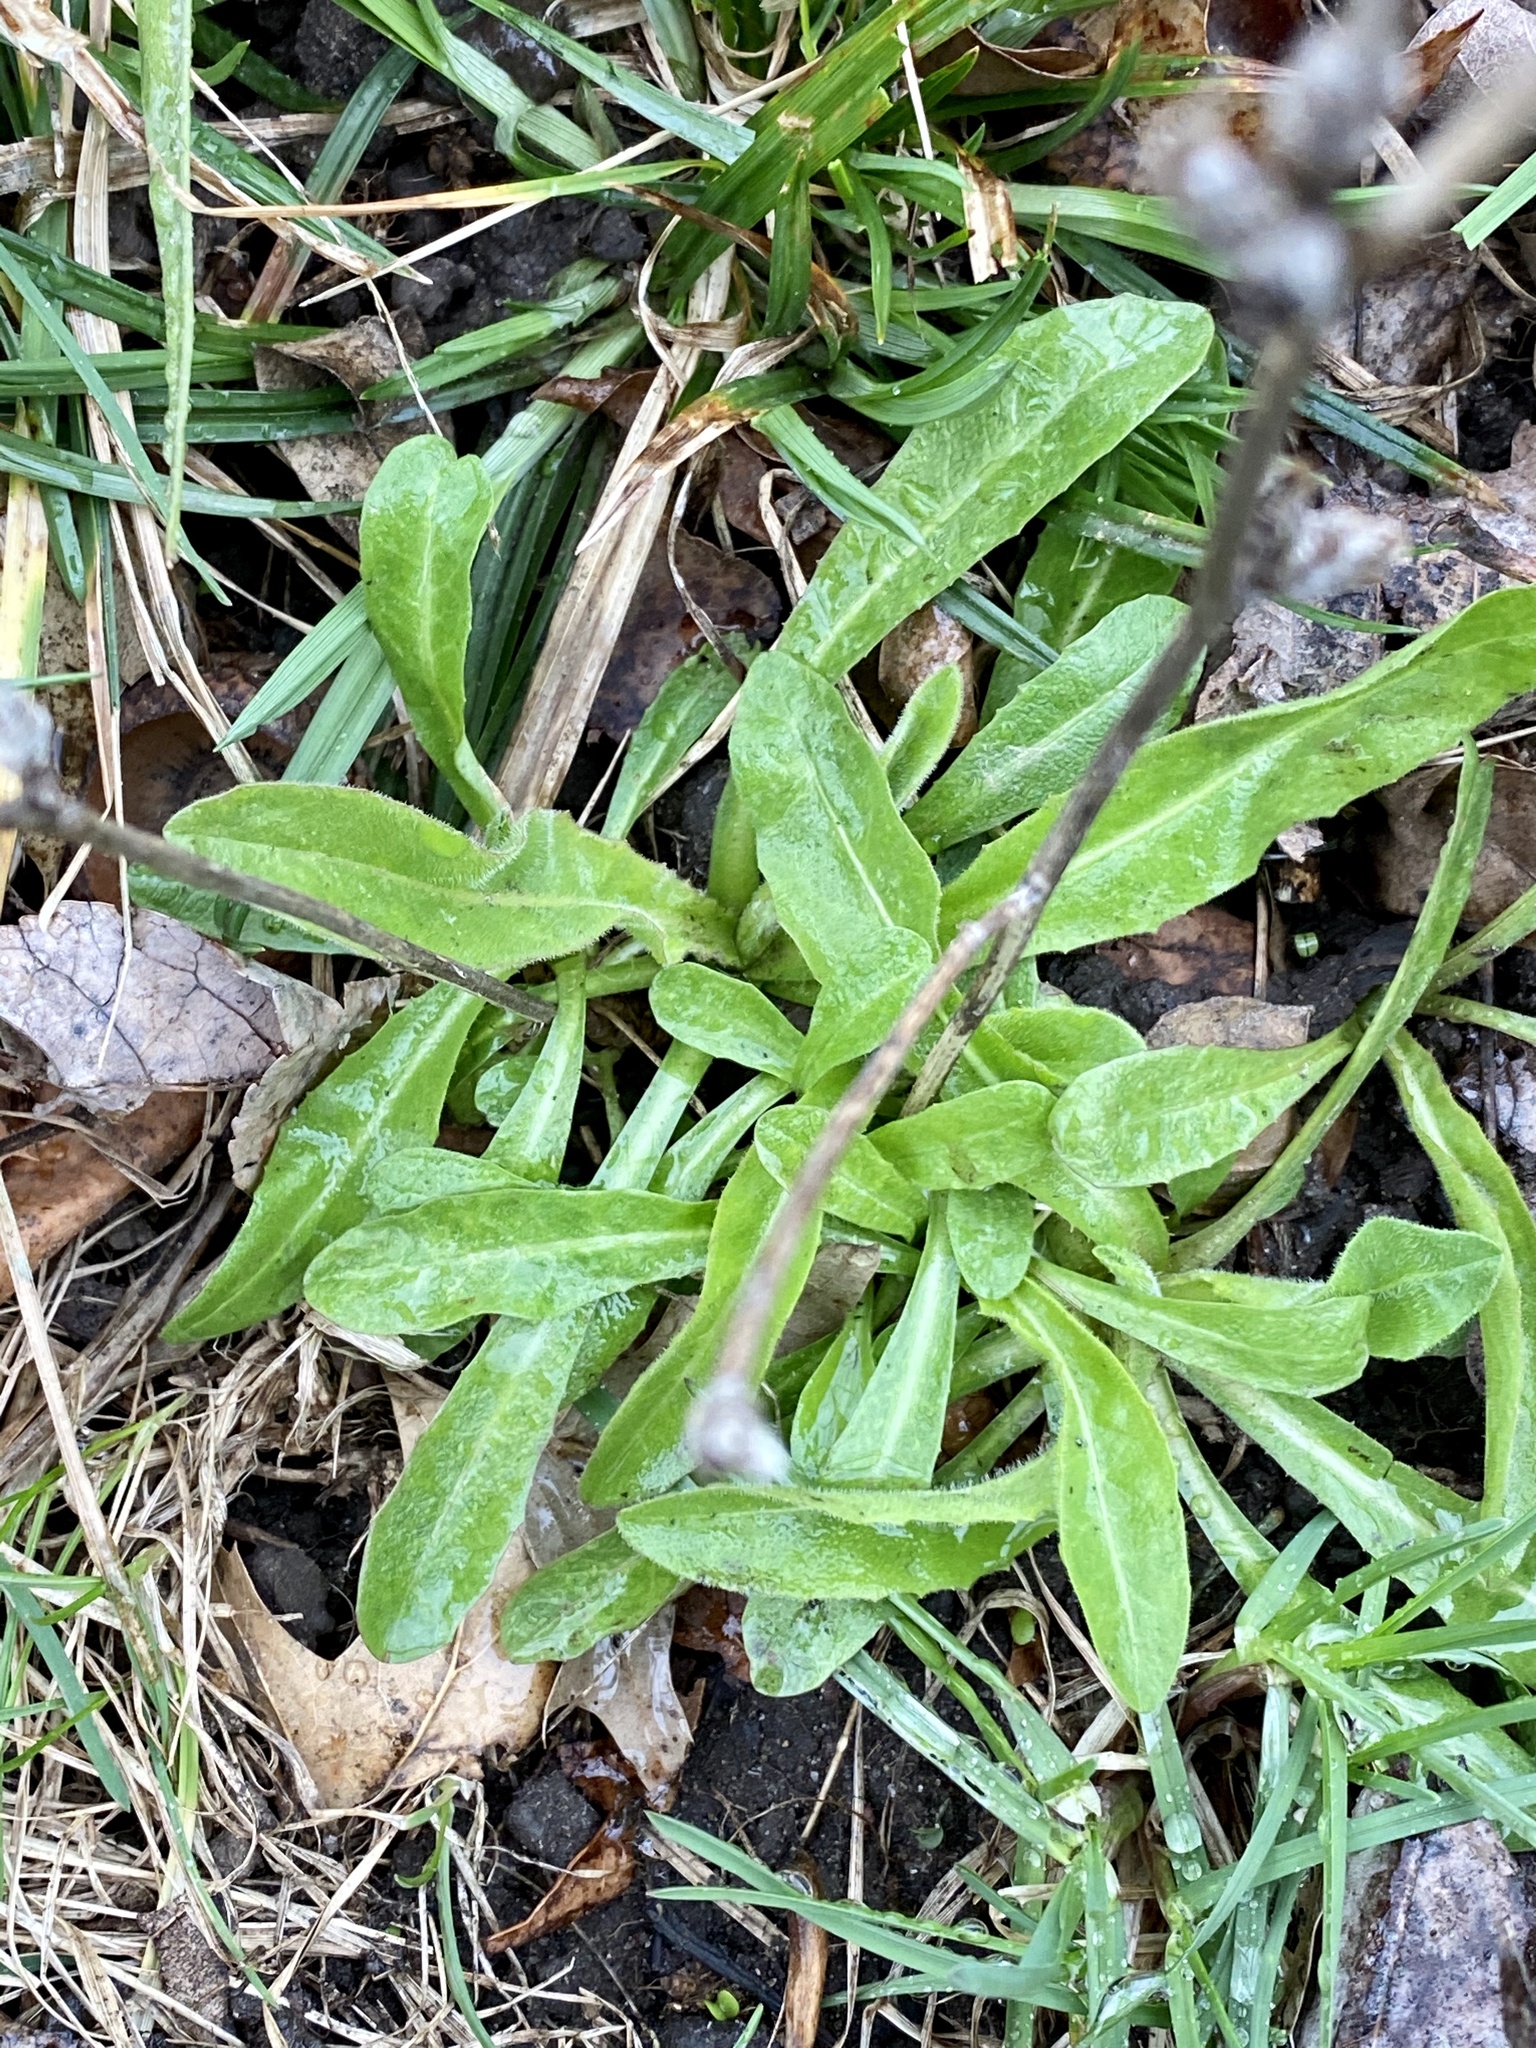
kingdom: Plantae
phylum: Tracheophyta
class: Magnoliopsida
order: Asterales
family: Asteraceae
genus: Cichorium
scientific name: Cichorium intybus
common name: Chicory
